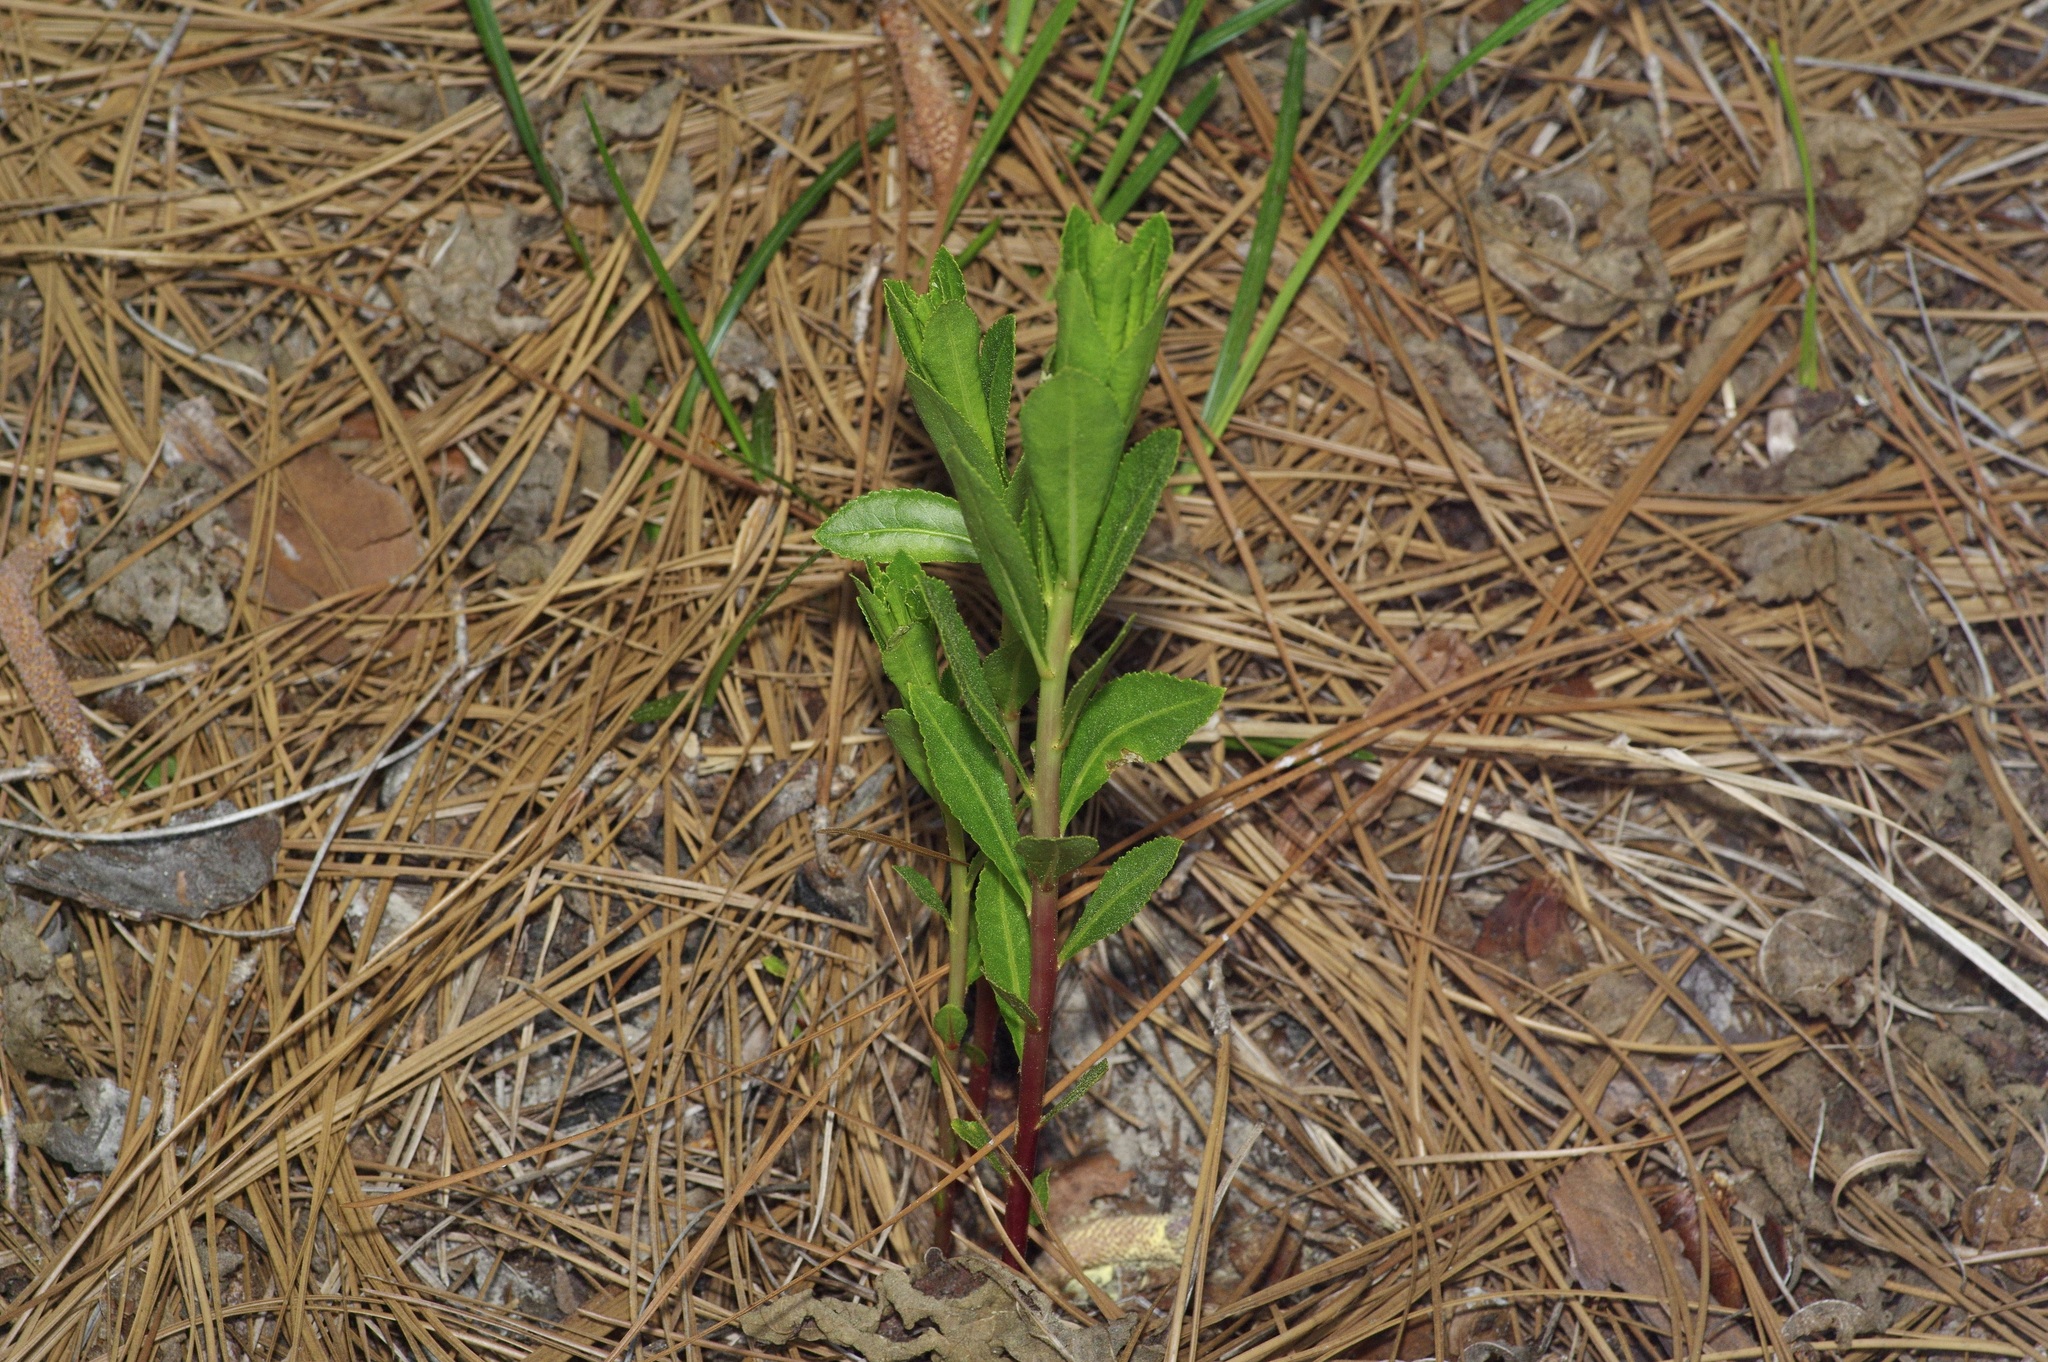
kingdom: Plantae
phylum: Tracheophyta
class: Magnoliopsida
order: Malpighiales
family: Euphorbiaceae
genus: Stillingia
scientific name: Stillingia sylvatica
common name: Queen's-delight
